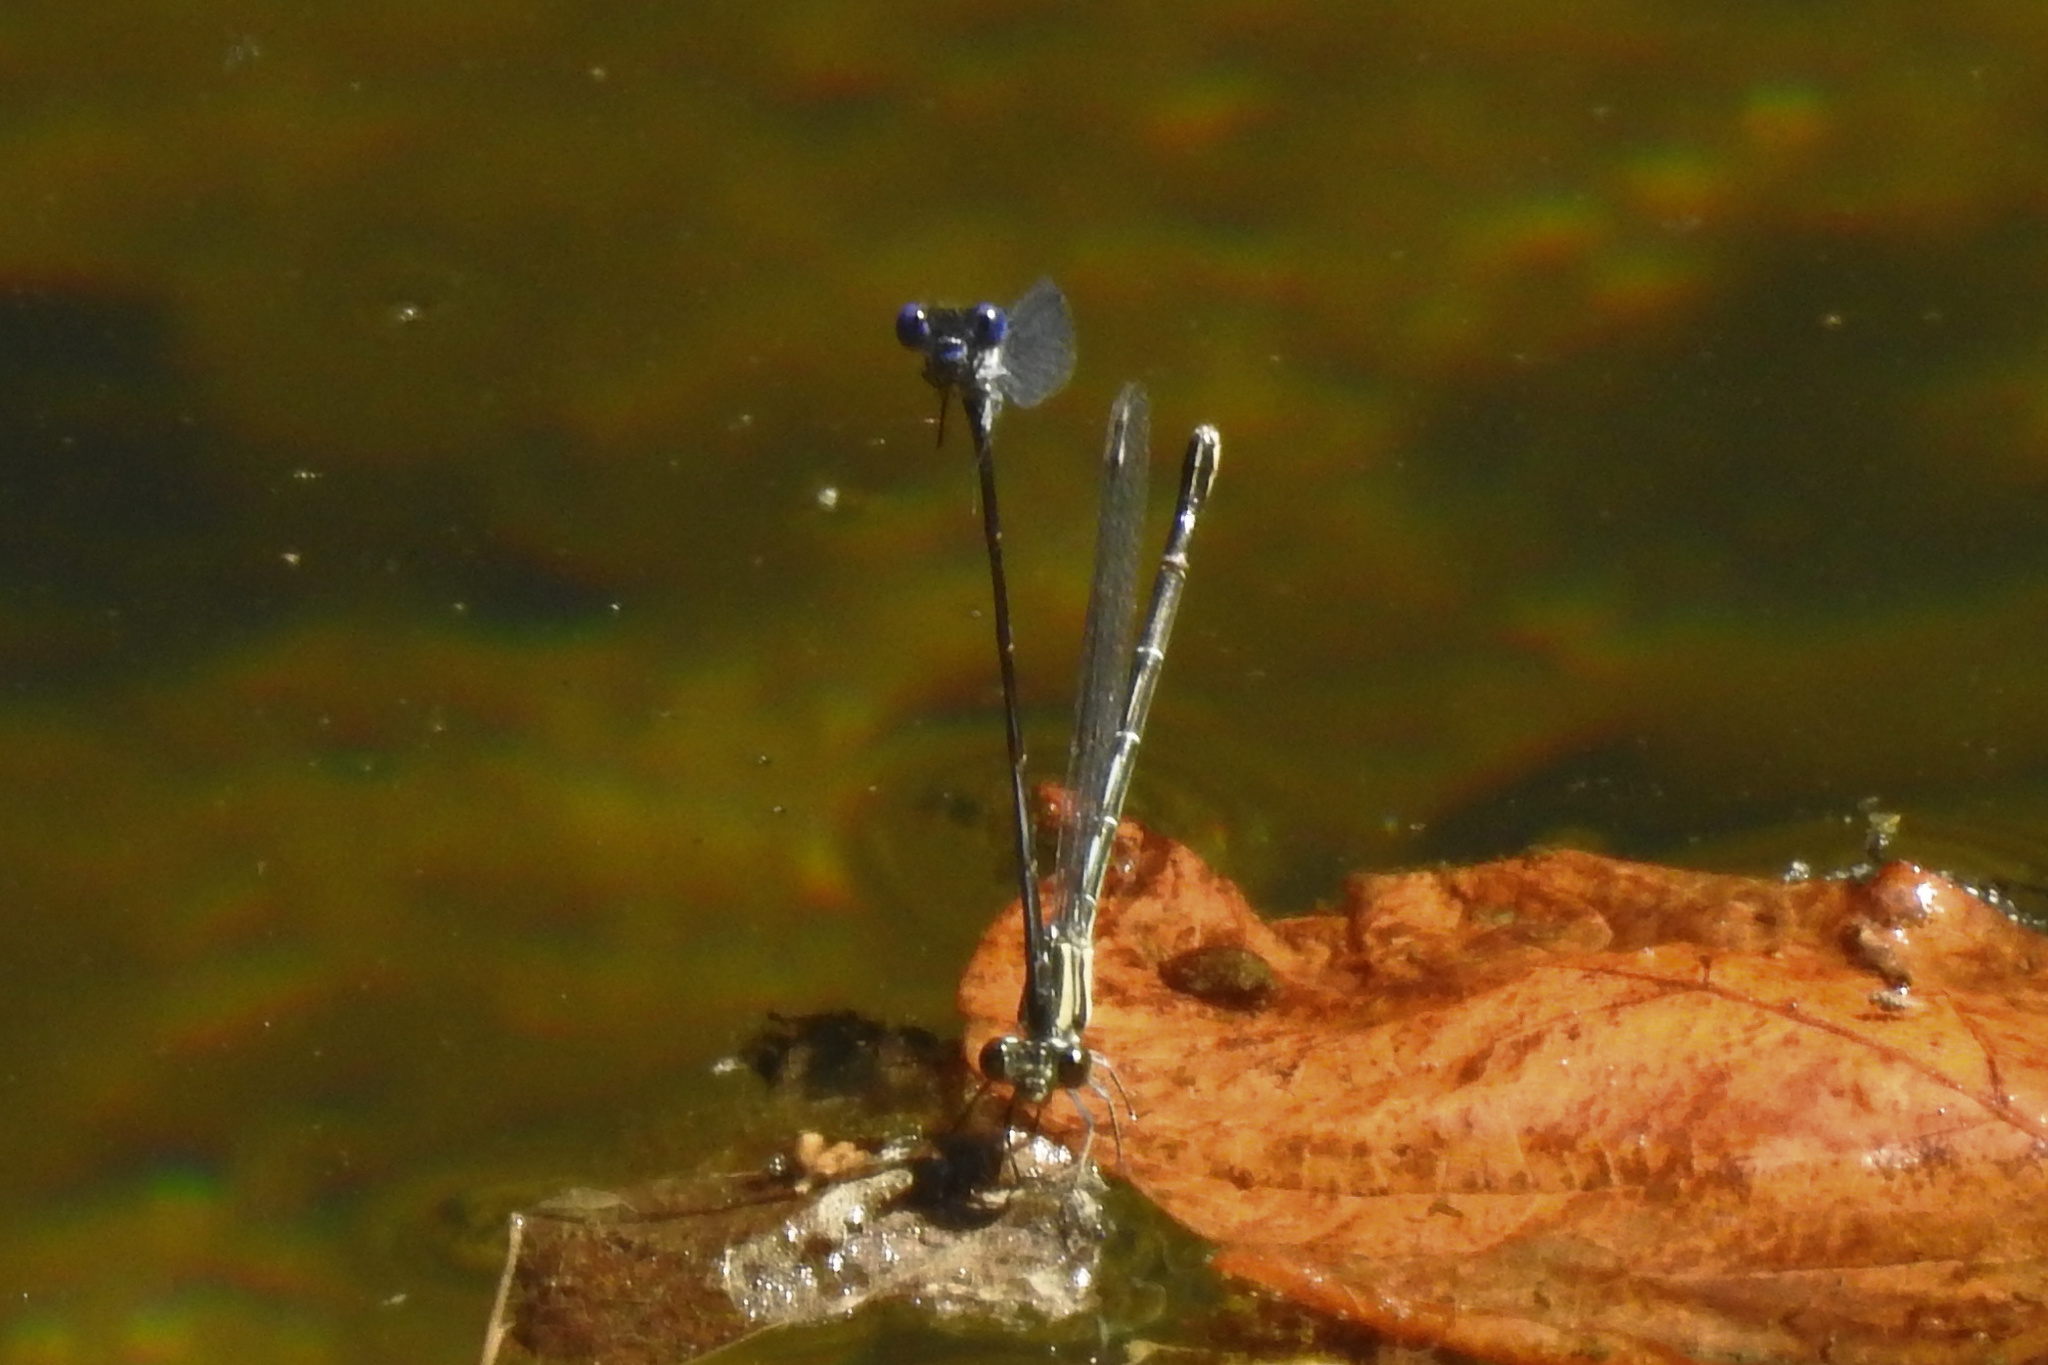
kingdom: Animalia
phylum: Arthropoda
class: Insecta
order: Odonata
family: Coenagrionidae
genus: Argia
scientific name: Argia translata
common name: Dusky dancer
